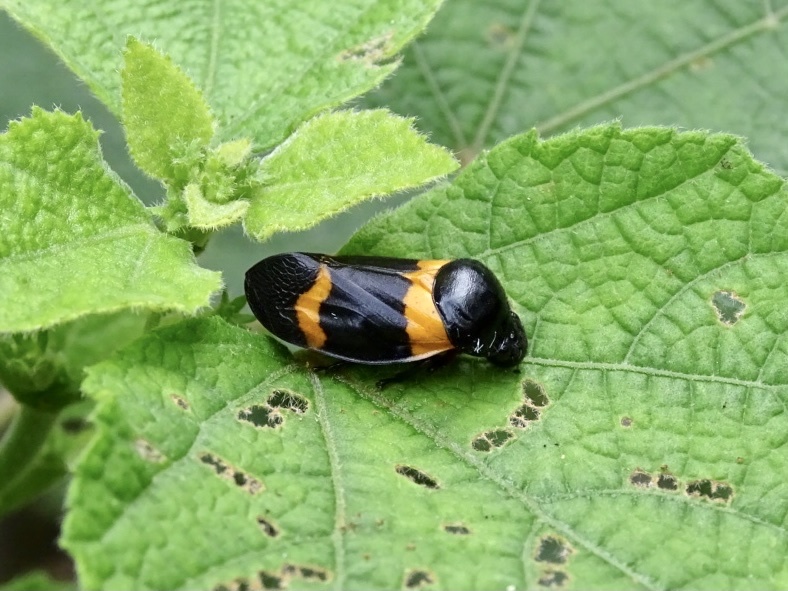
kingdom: Animalia
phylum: Arthropoda
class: Insecta
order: Hemiptera
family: Cercopidae
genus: Cosmoscarta
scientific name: Cosmoscarta abdominalis
